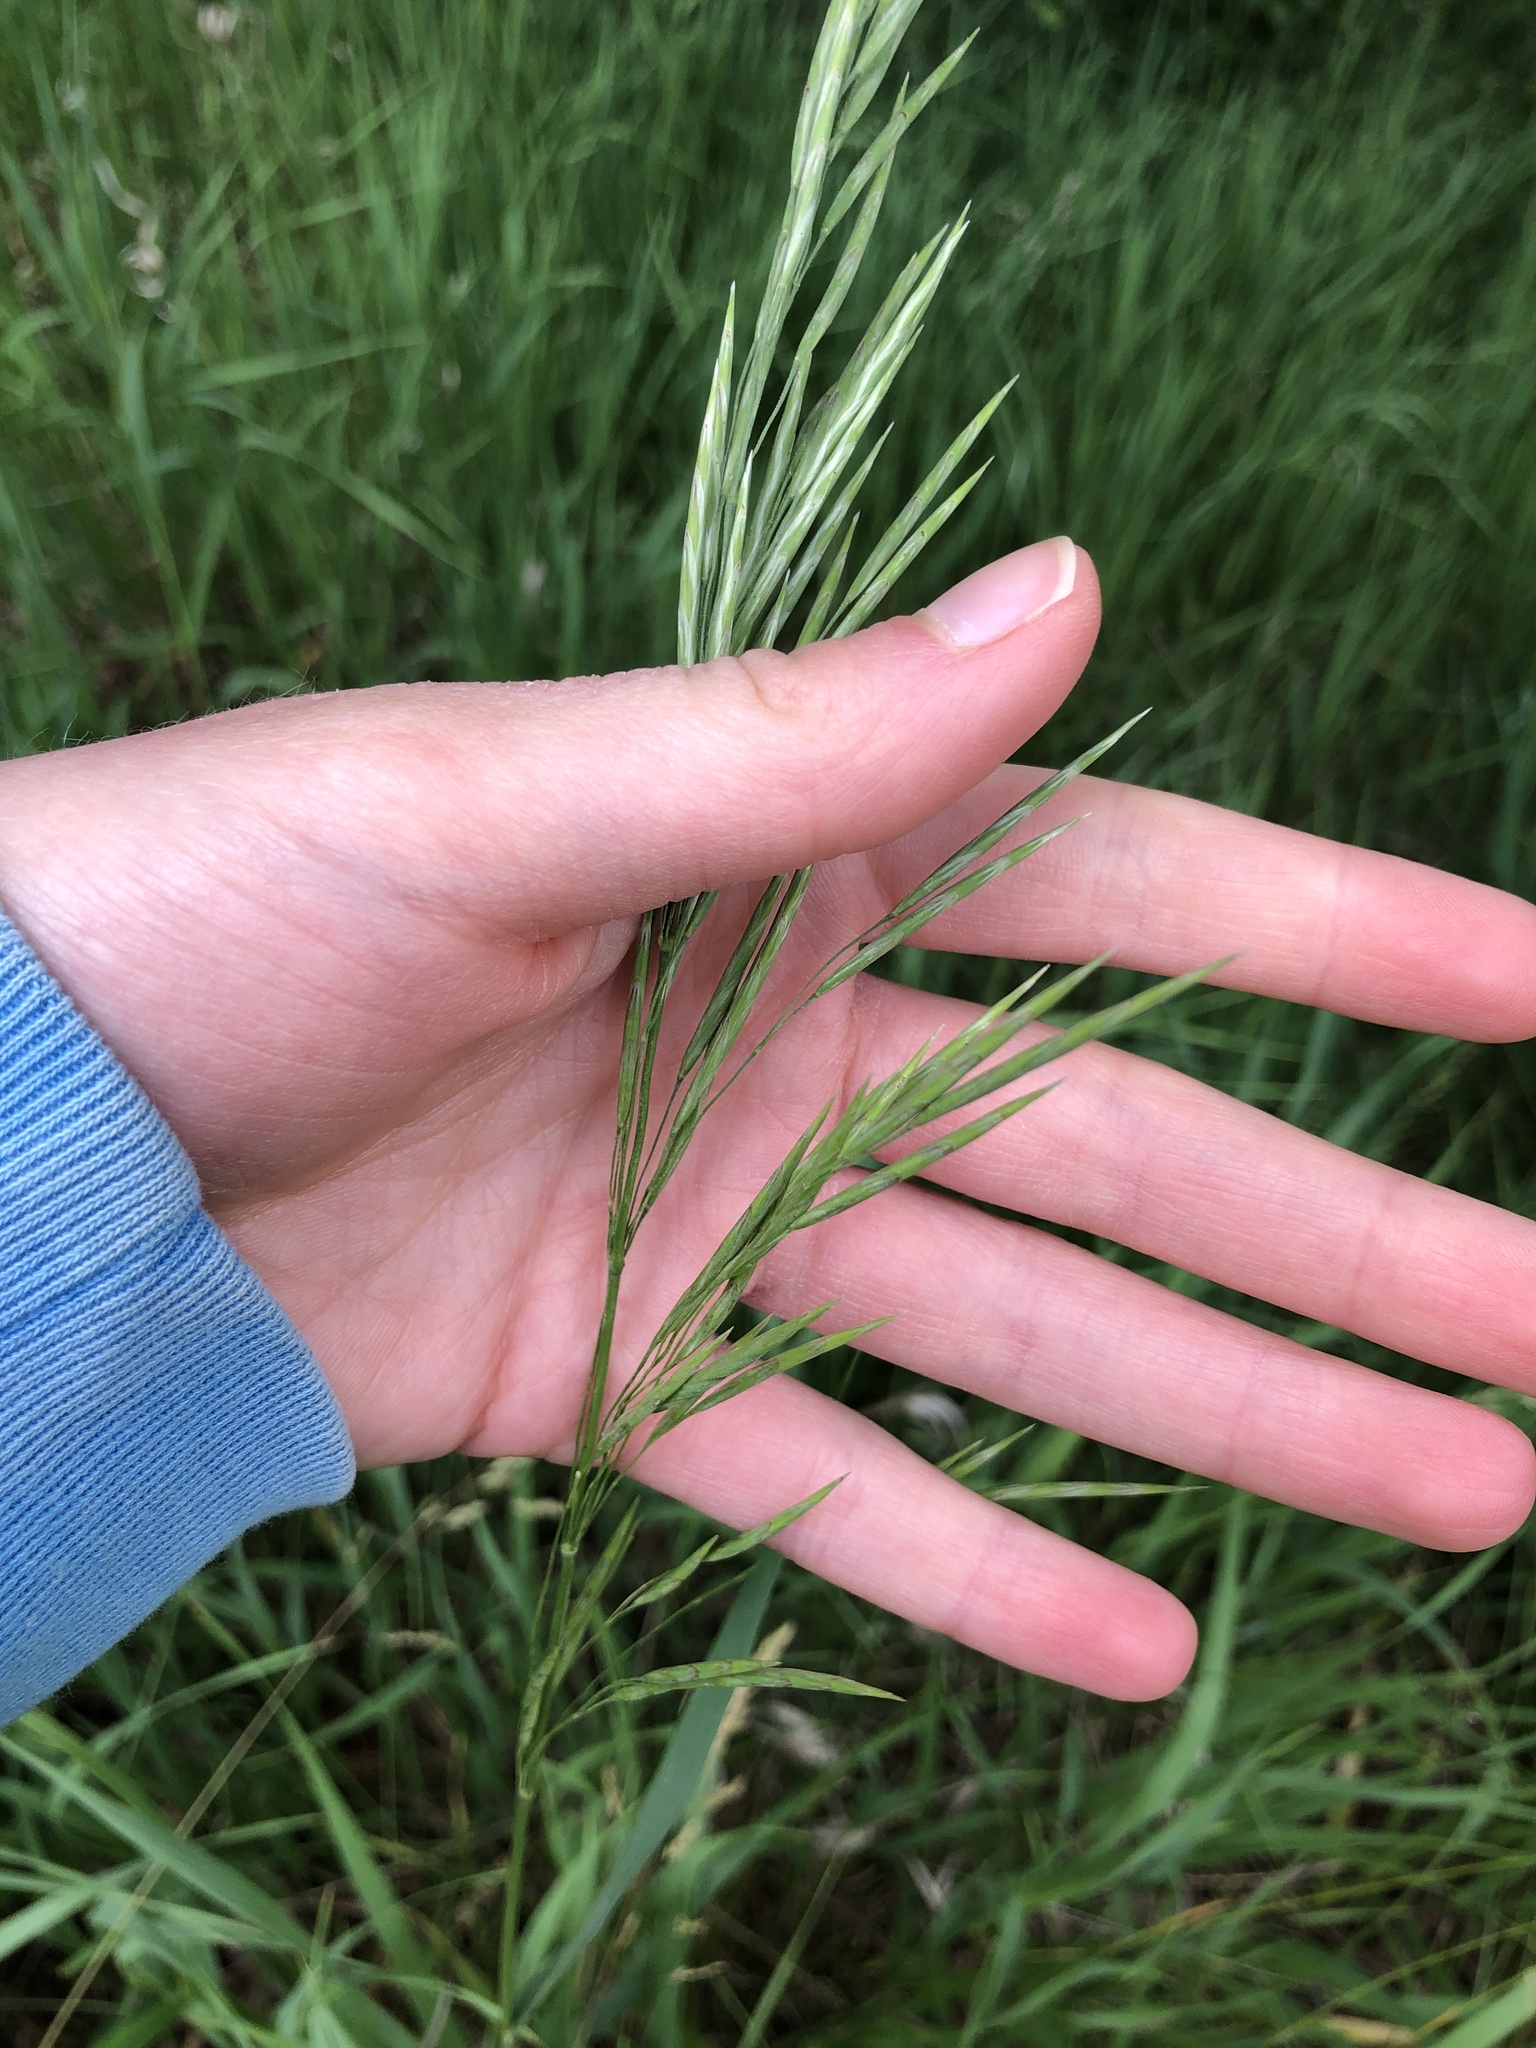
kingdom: Plantae
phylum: Tracheophyta
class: Liliopsida
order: Poales
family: Poaceae
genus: Bromus
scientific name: Bromus inermis
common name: Smooth brome
